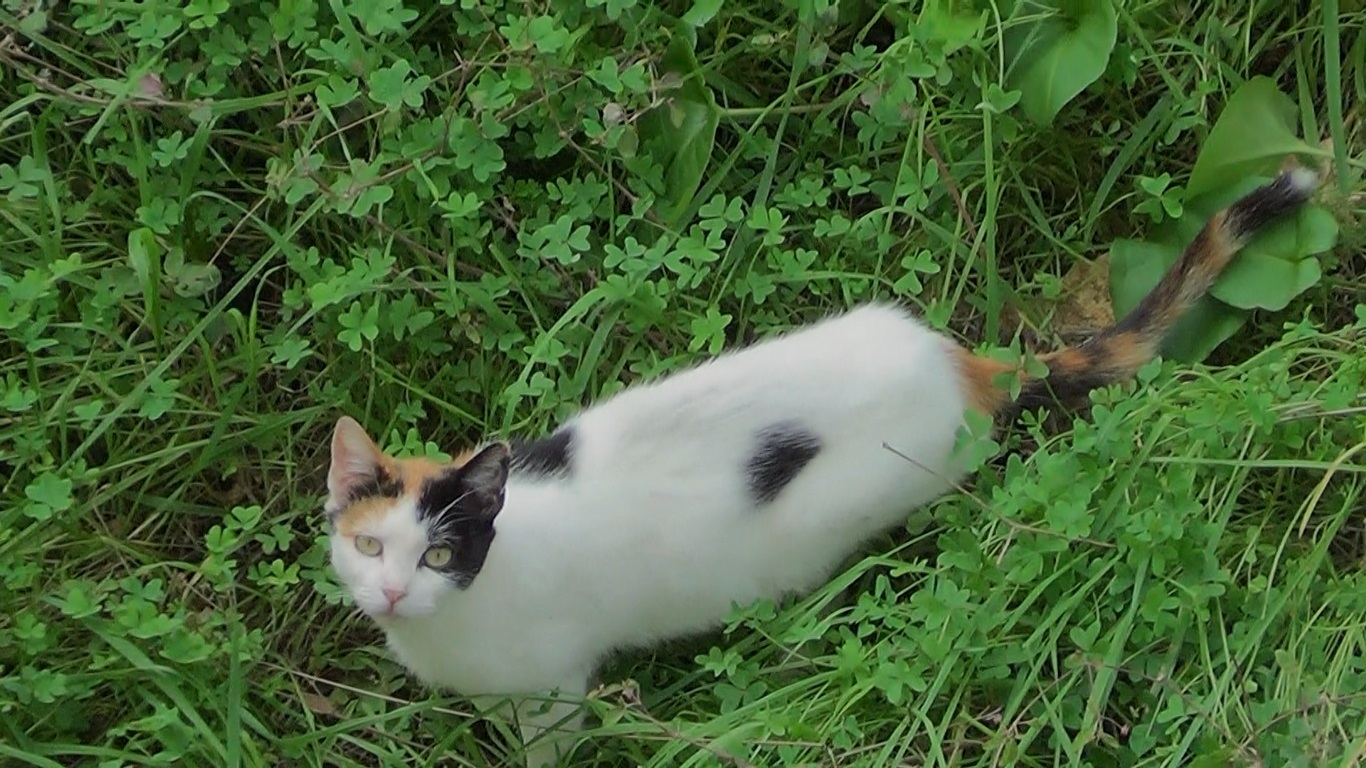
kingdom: Animalia
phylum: Chordata
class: Mammalia
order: Carnivora
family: Felidae
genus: Felis
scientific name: Felis catus
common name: Domestic cat
